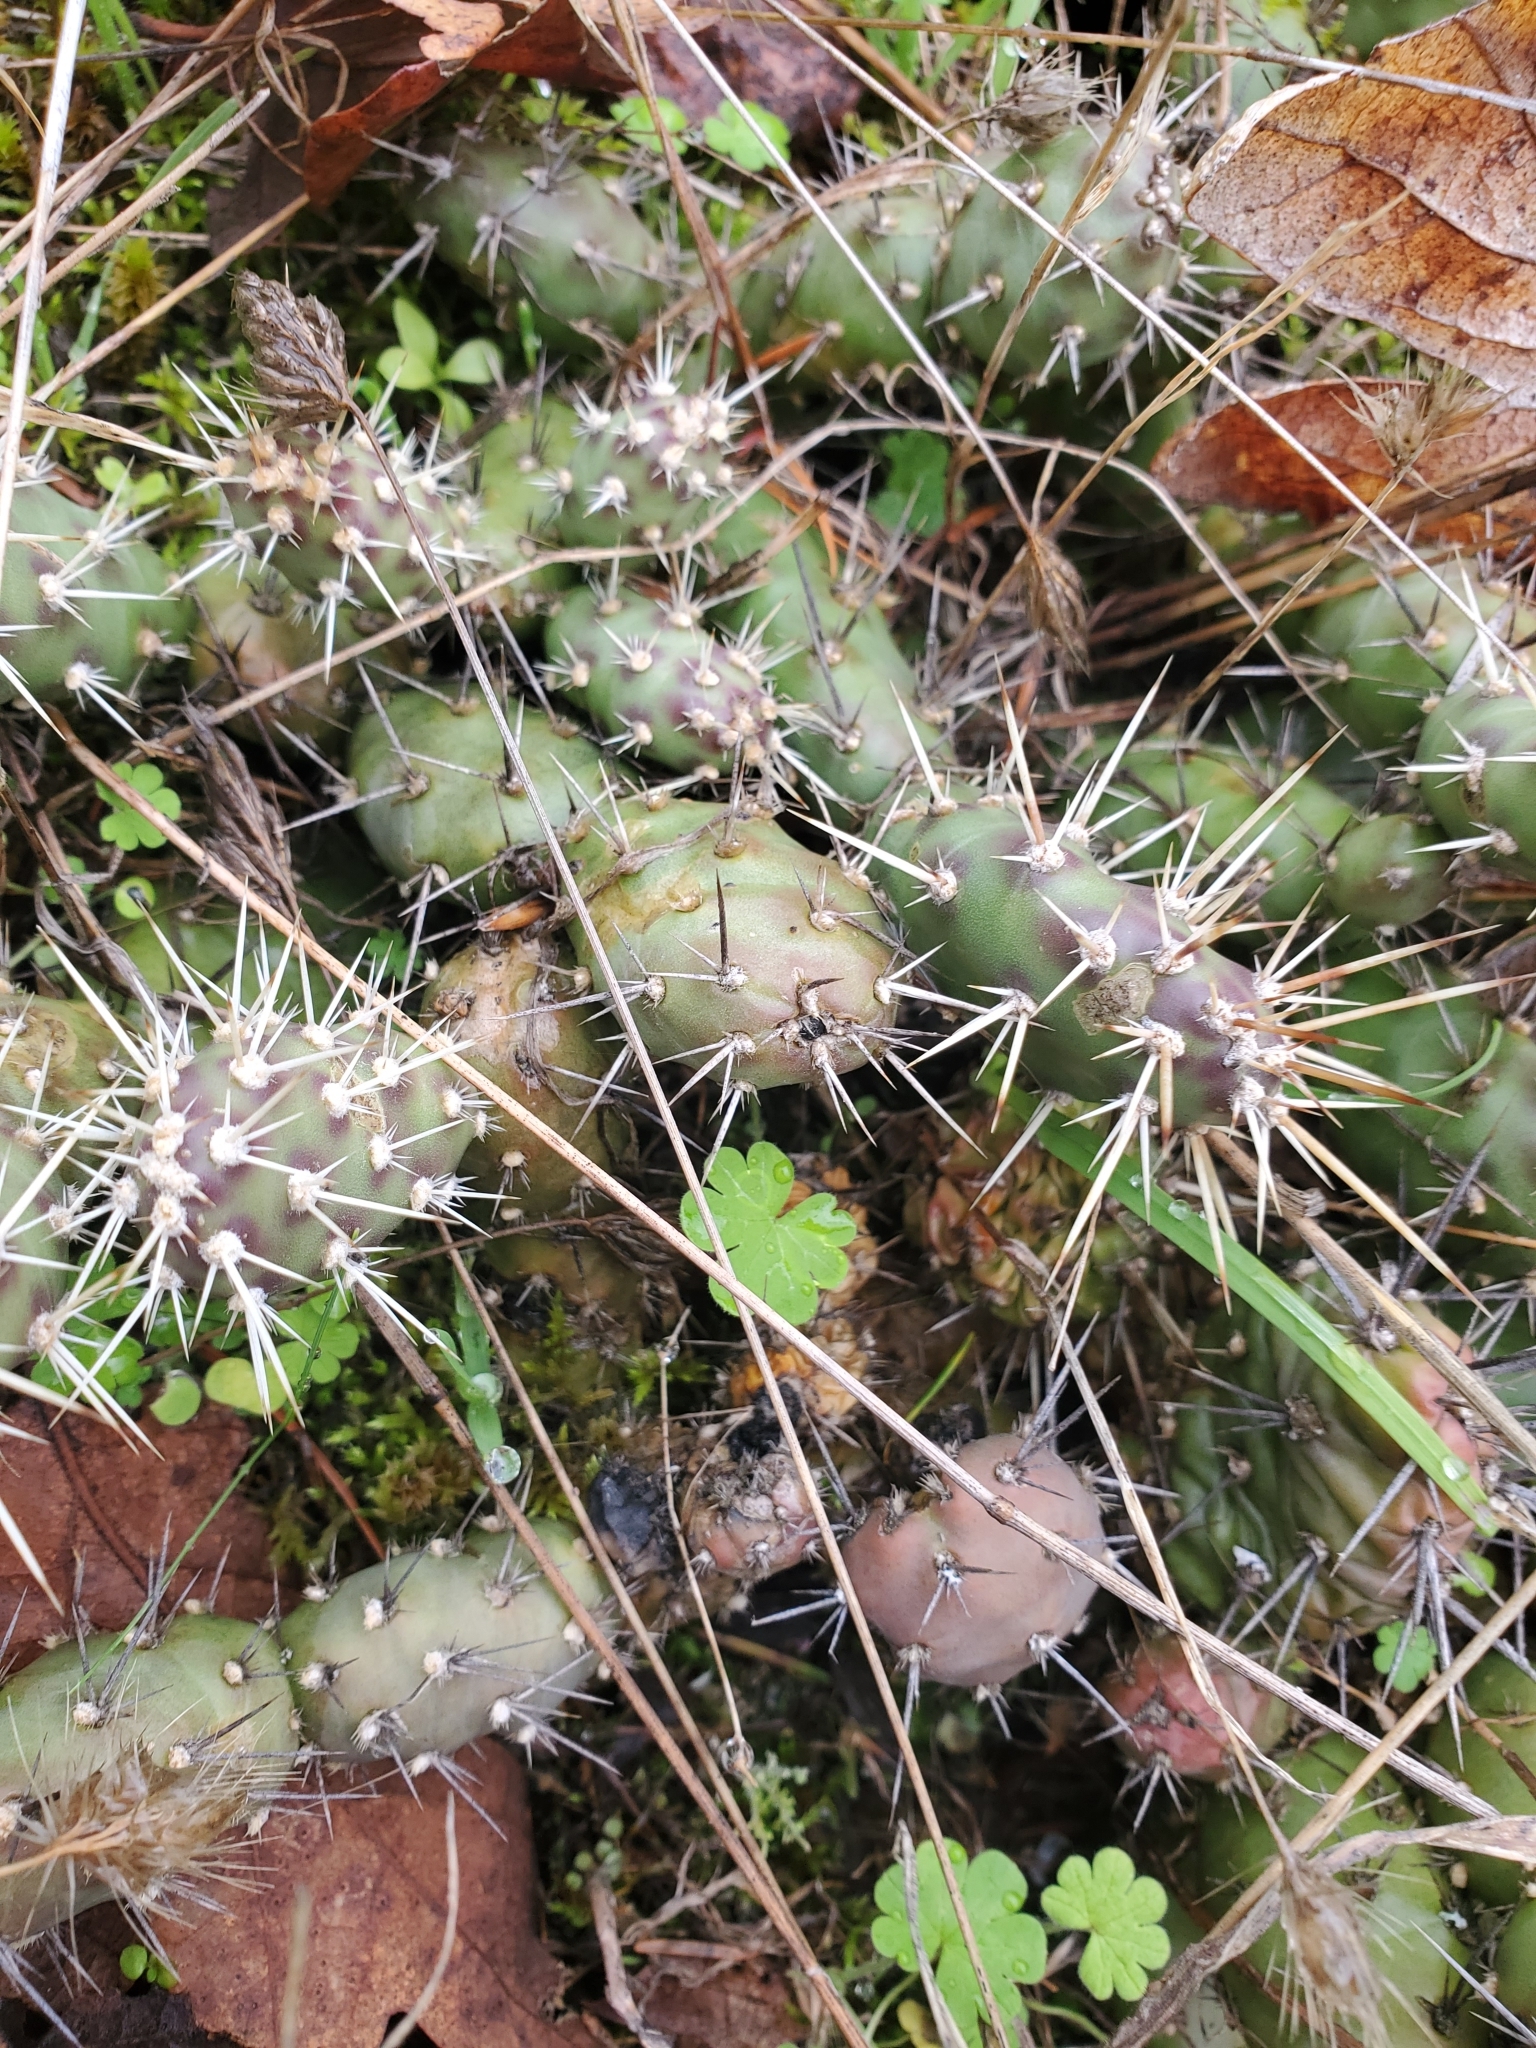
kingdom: Plantae
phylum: Tracheophyta
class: Magnoliopsida
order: Caryophyllales
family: Cactaceae
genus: Opuntia
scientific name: Opuntia fragilis
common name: Brittle cactus
